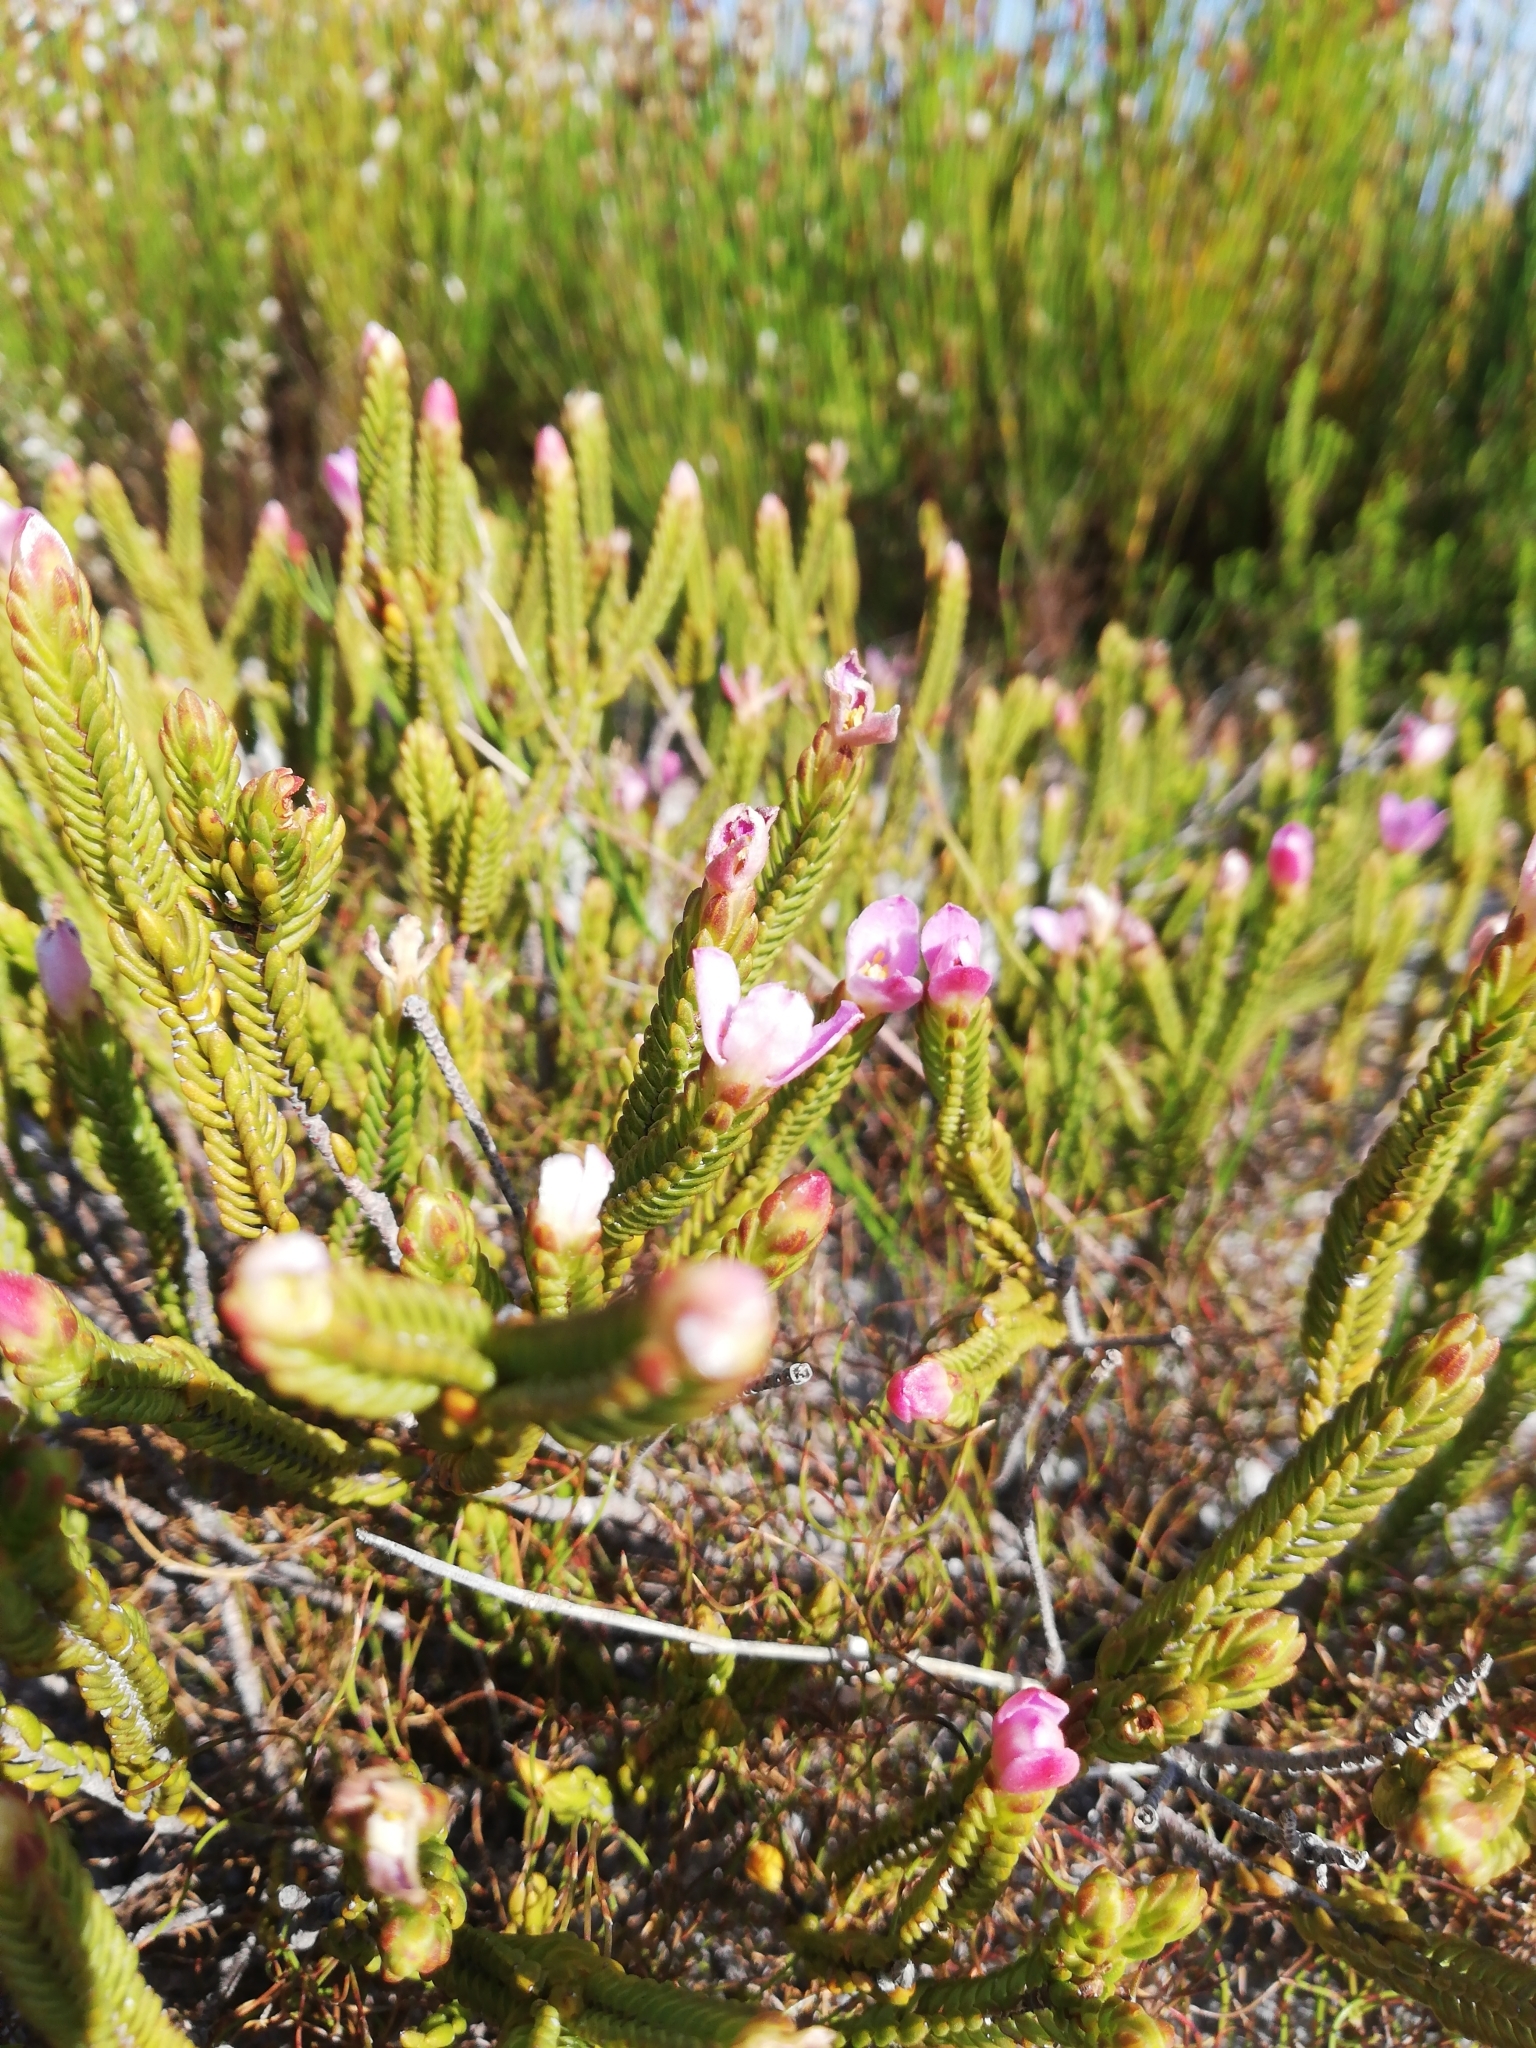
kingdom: Plantae
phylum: Tracheophyta
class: Magnoliopsida
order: Malvales
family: Thymelaeaceae
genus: Lachnaea
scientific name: Lachnaea grandiflora
